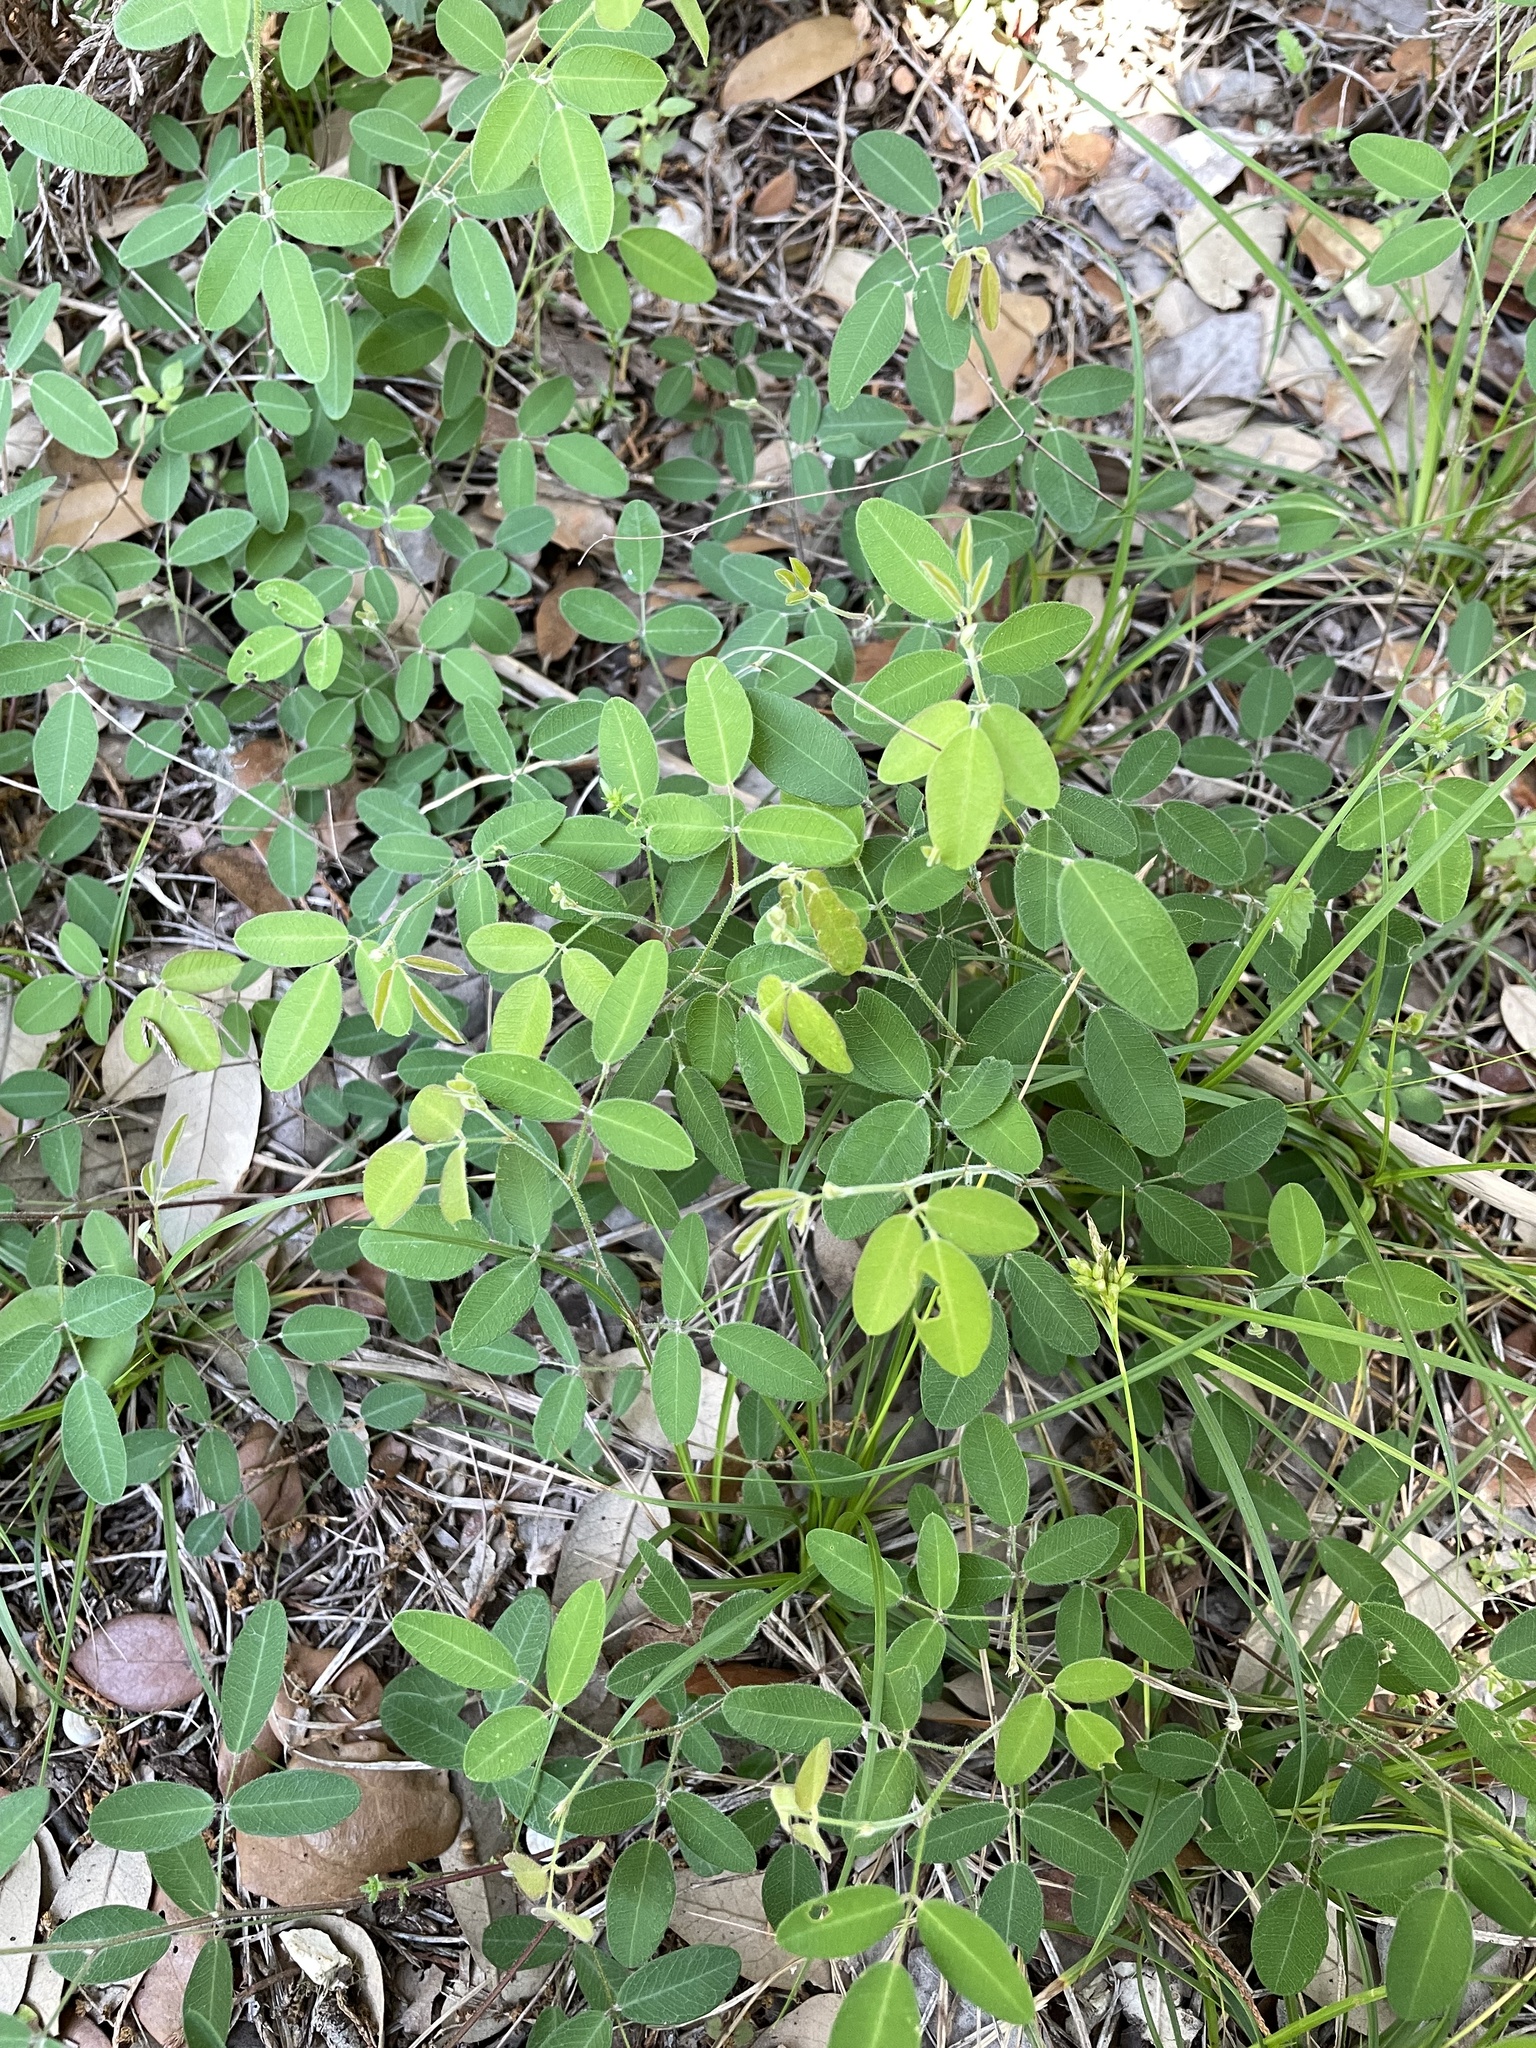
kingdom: Plantae
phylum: Tracheophyta
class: Magnoliopsida
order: Fabales
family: Fabaceae
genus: Lespedeza
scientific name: Lespedeza texana
